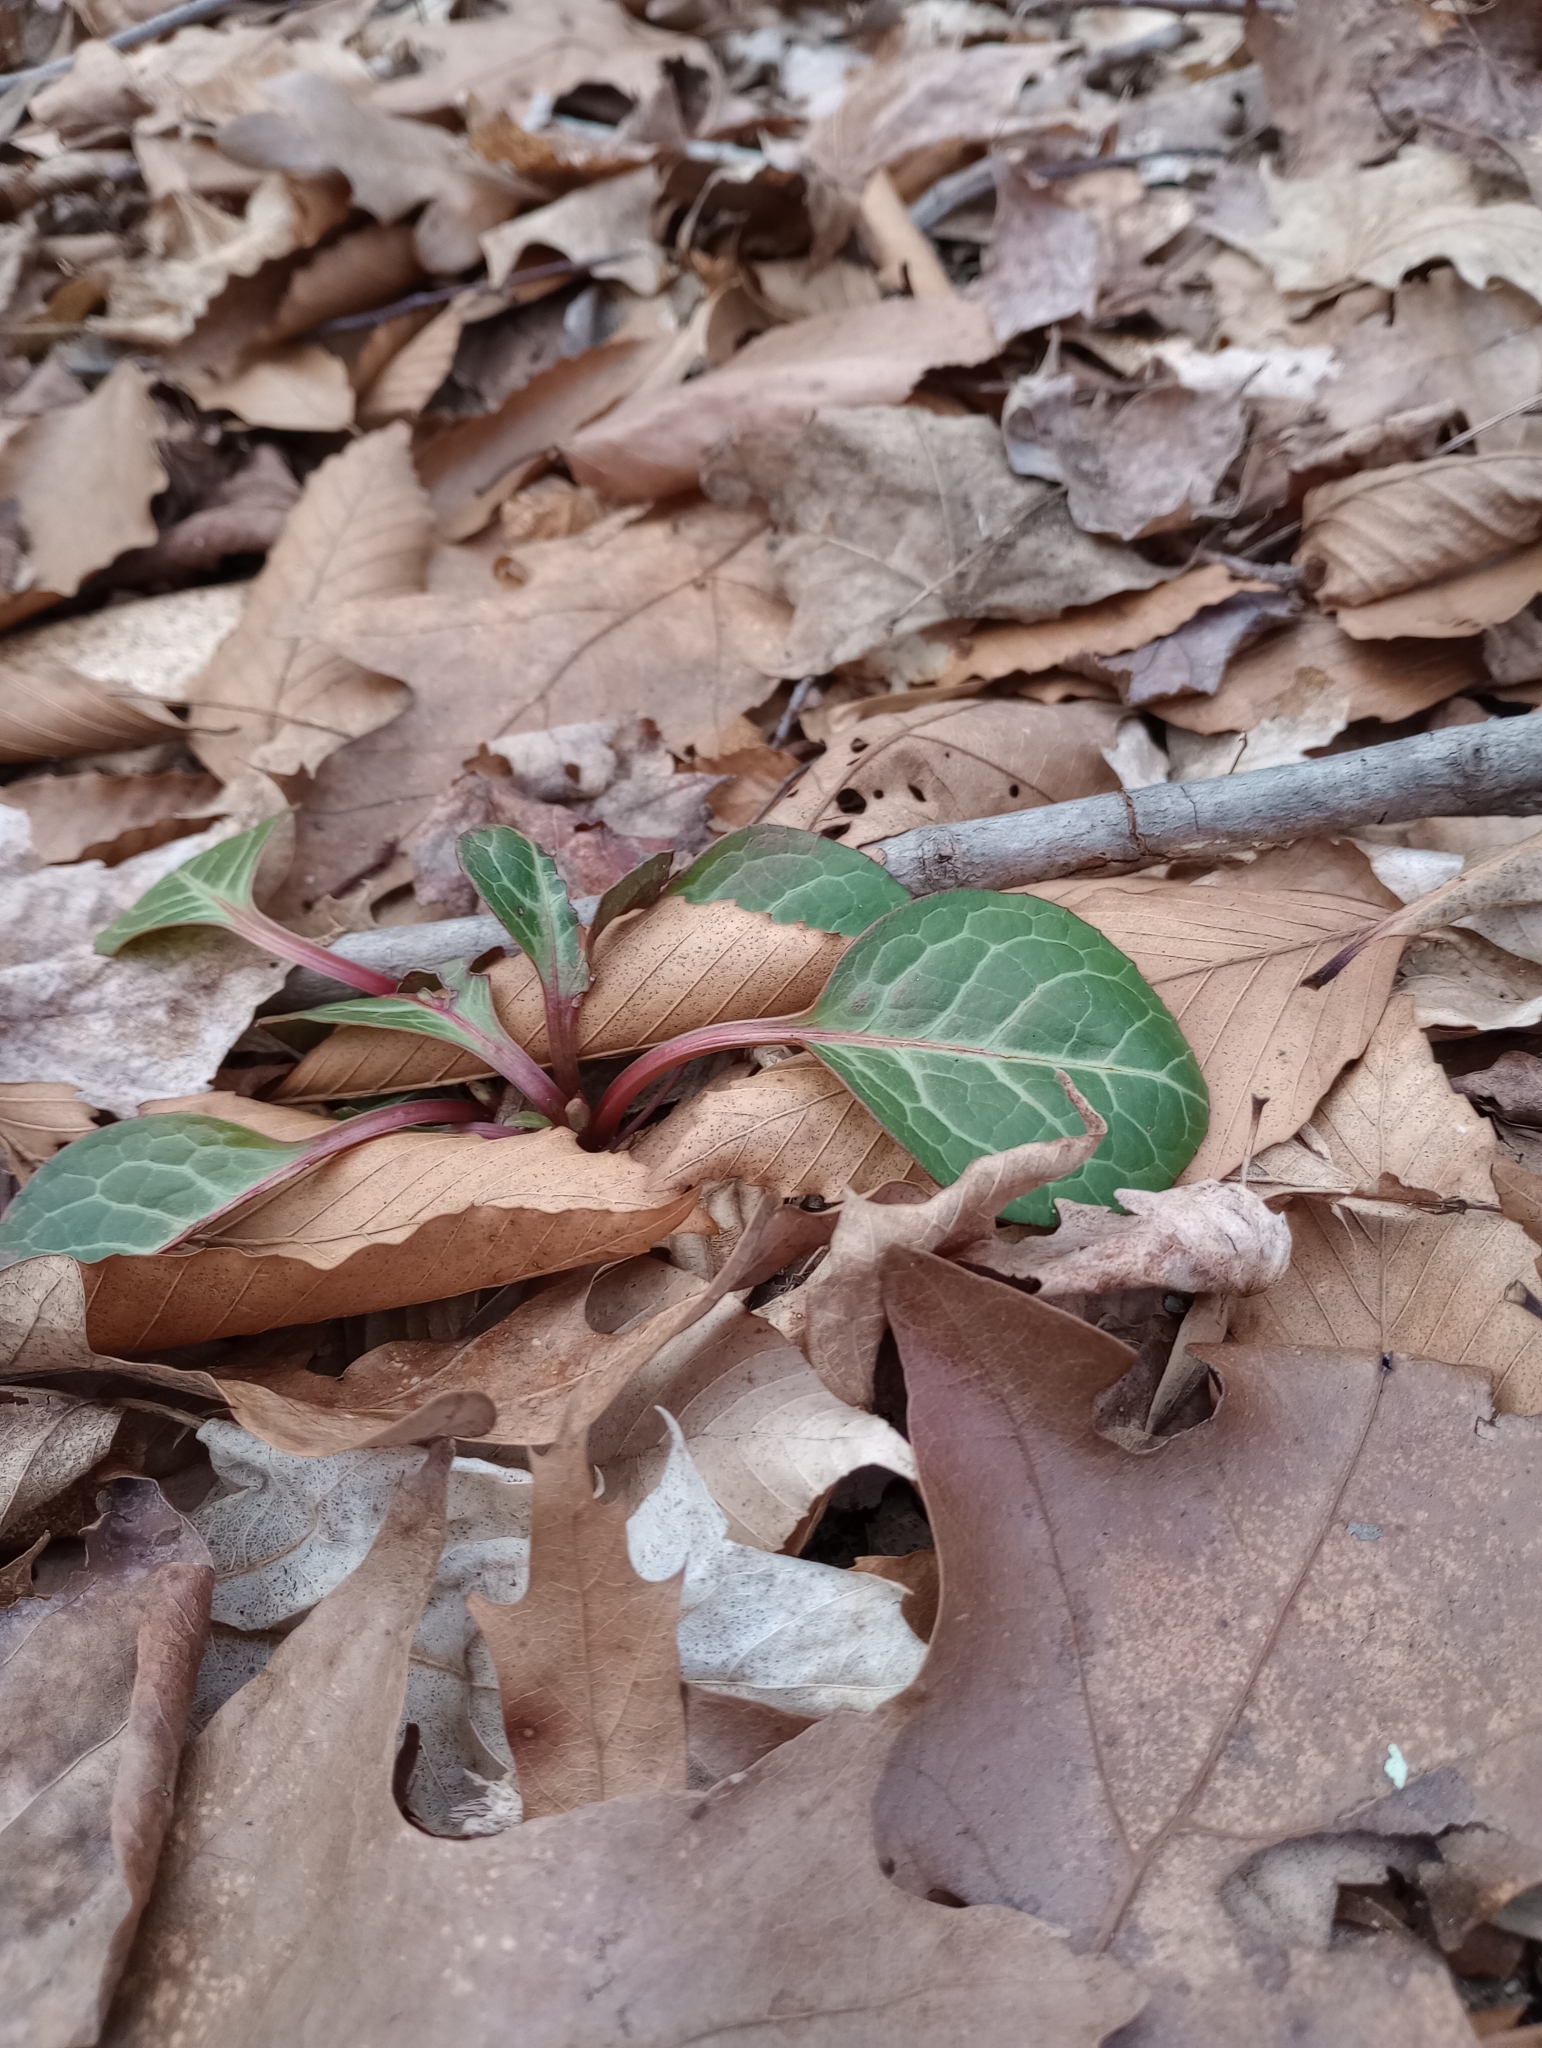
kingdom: Plantae
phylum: Tracheophyta
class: Magnoliopsida
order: Ericales
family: Ericaceae
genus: Pyrola
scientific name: Pyrola americana
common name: American wintergreen
